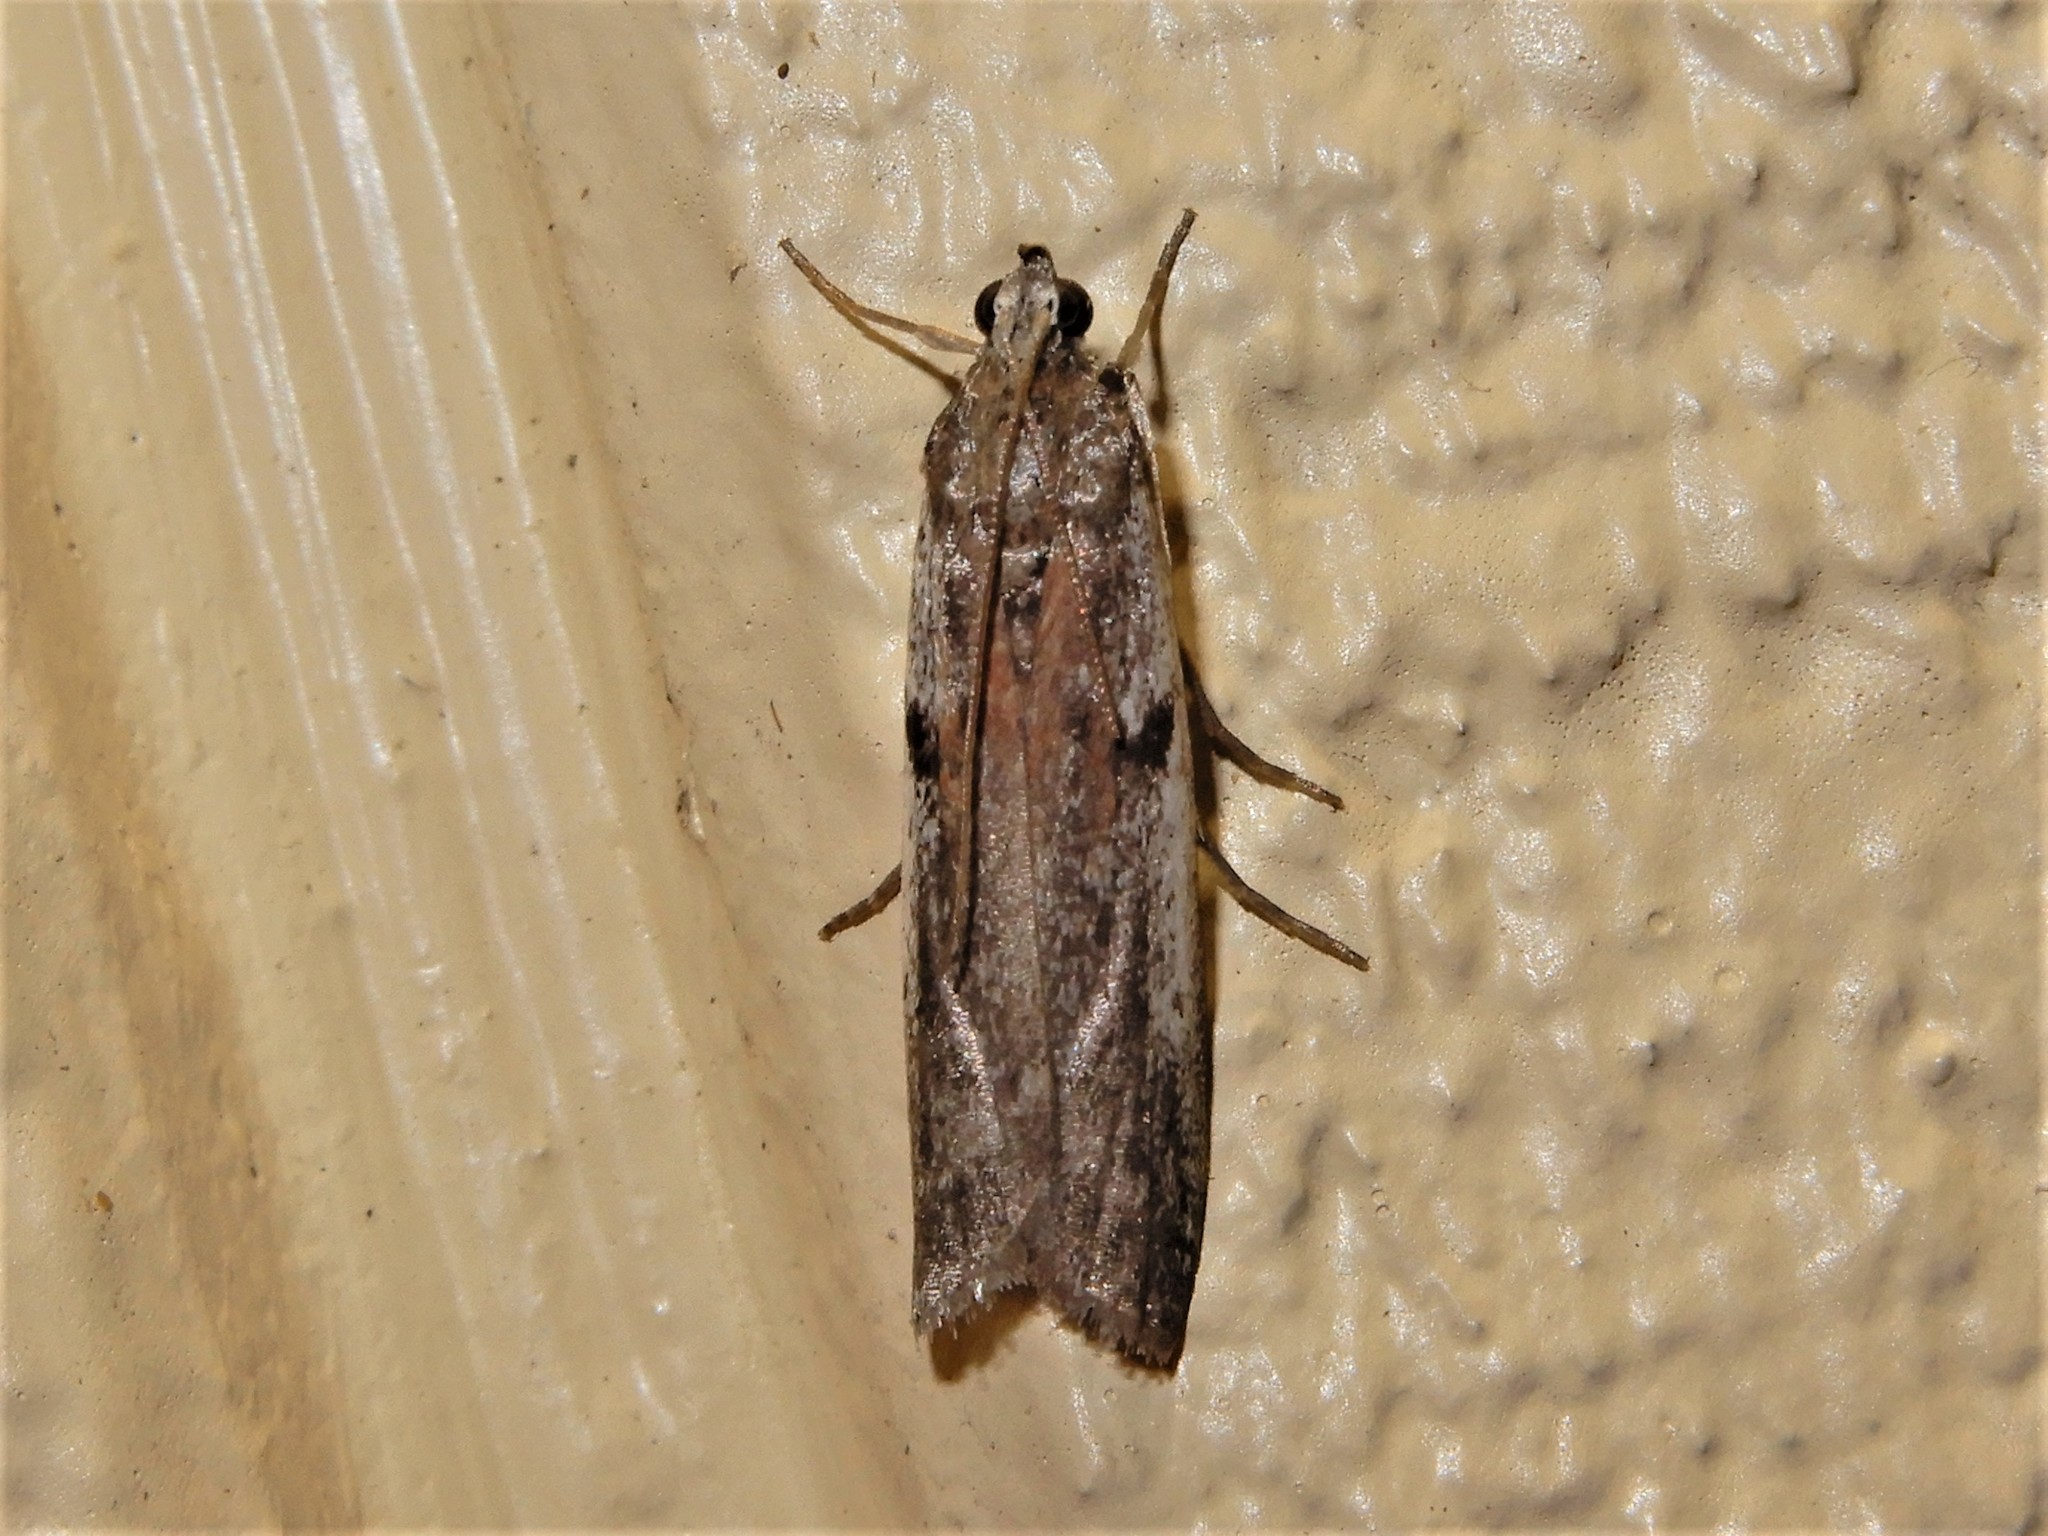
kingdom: Animalia
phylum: Arthropoda
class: Insecta
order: Lepidoptera
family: Pyralidae
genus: Patagoniodes
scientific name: Patagoniodes farinaria
